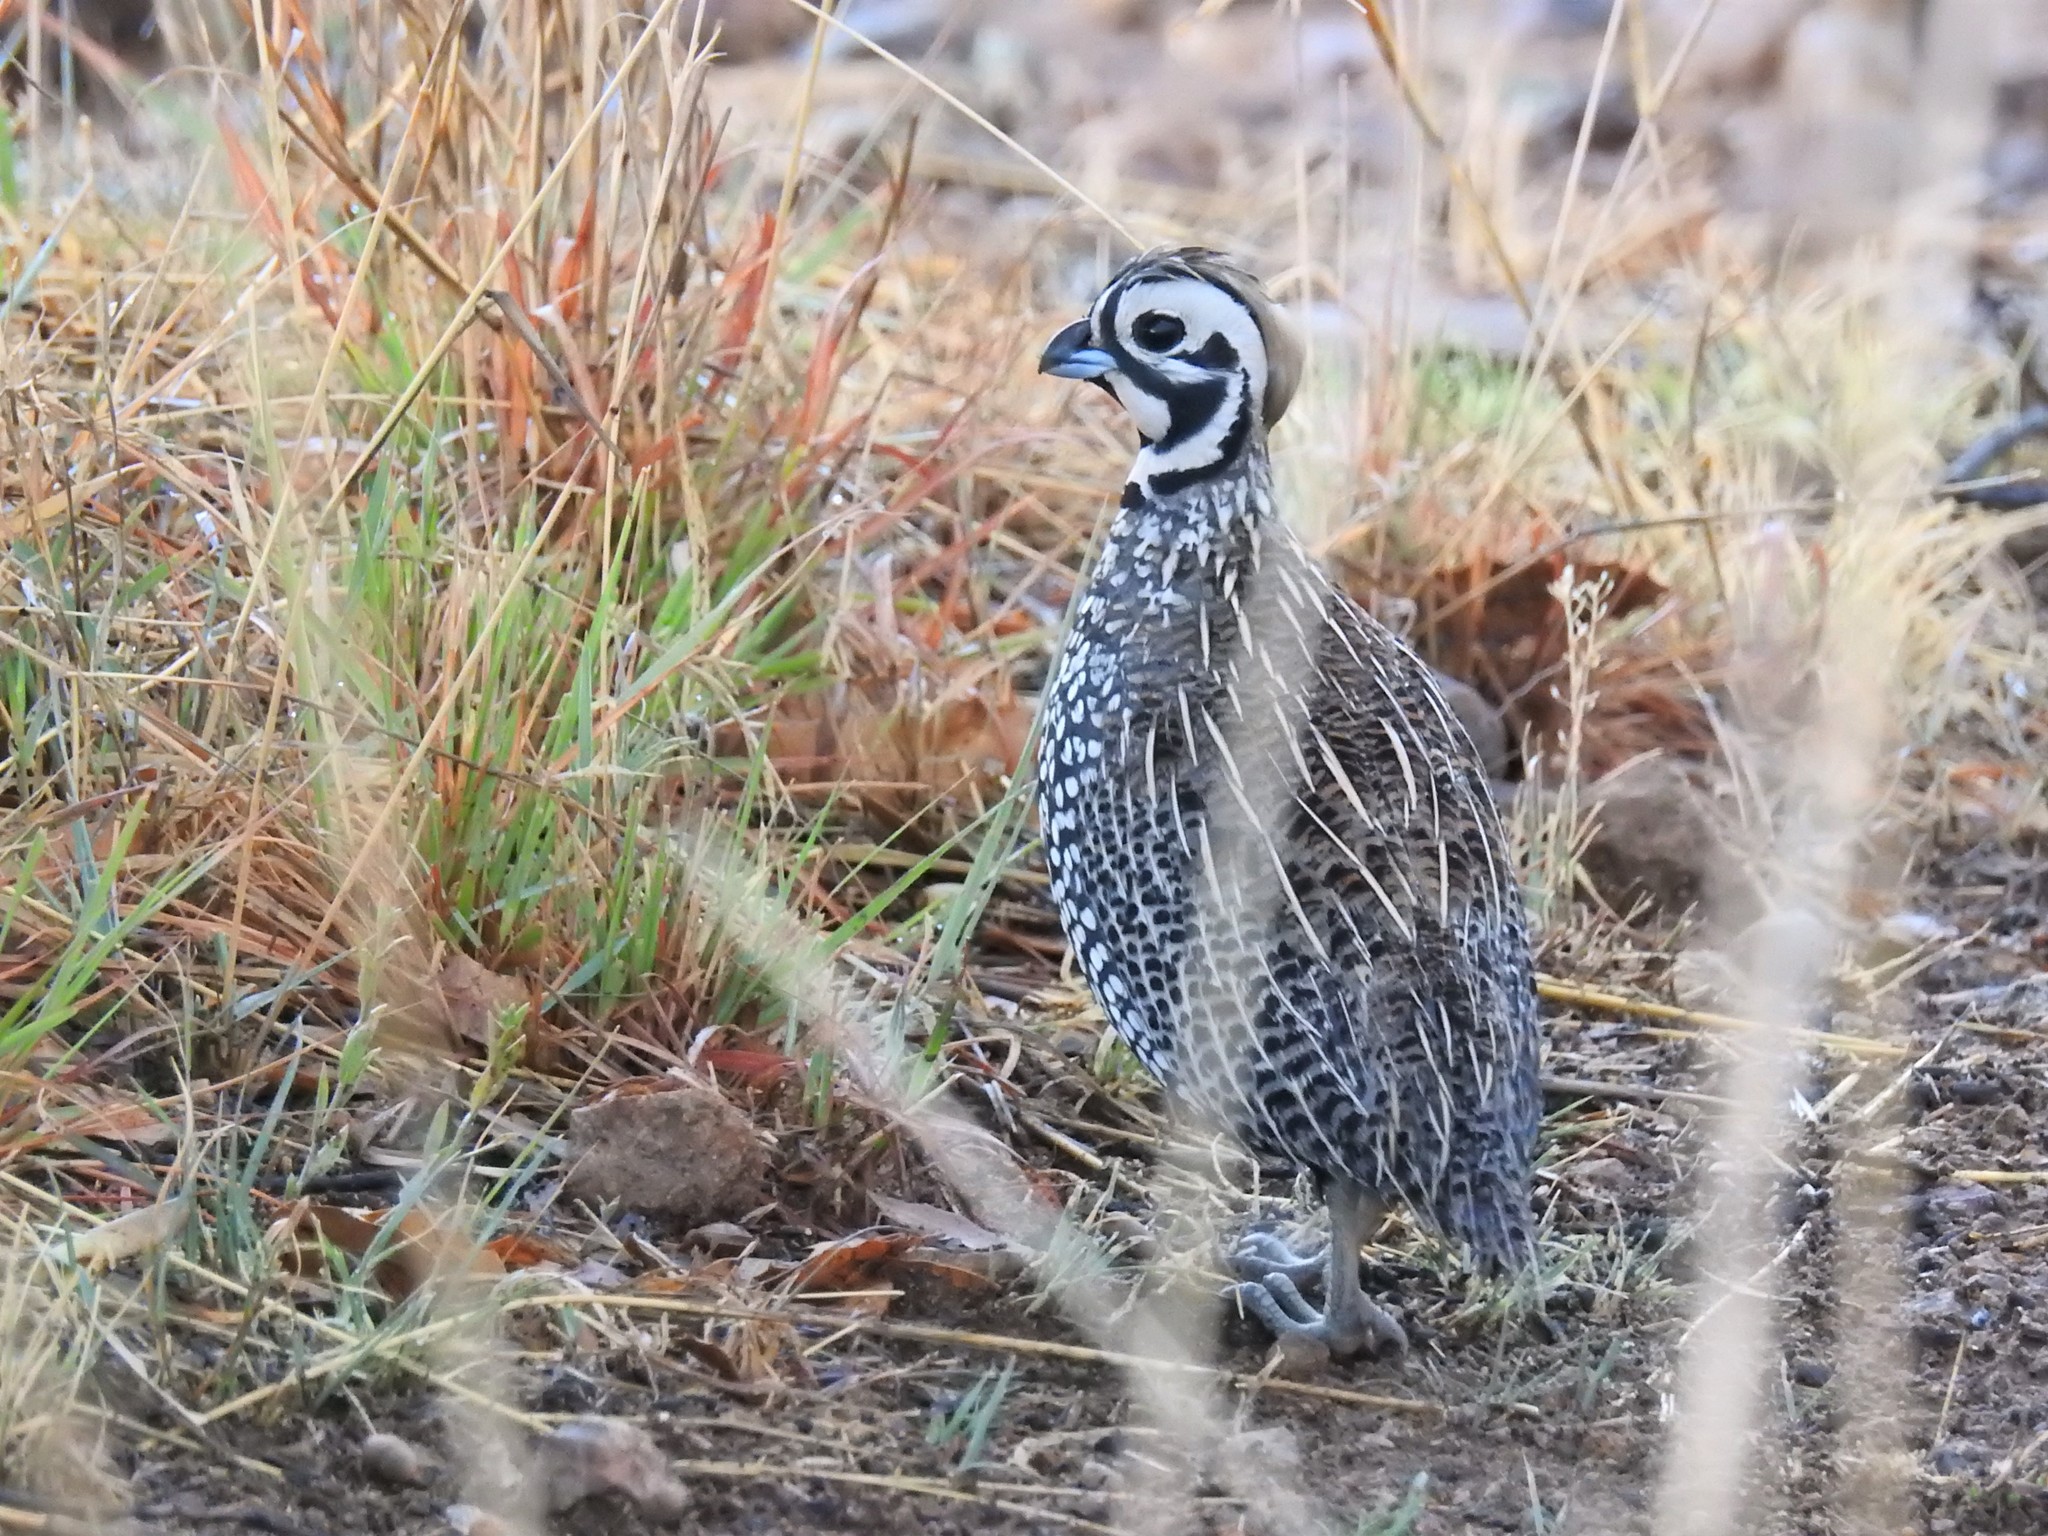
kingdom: Animalia
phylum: Chordata
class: Aves
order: Galliformes
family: Odontophoridae
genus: Cyrtonyx
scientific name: Cyrtonyx montezumae
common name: Montezuma quail
